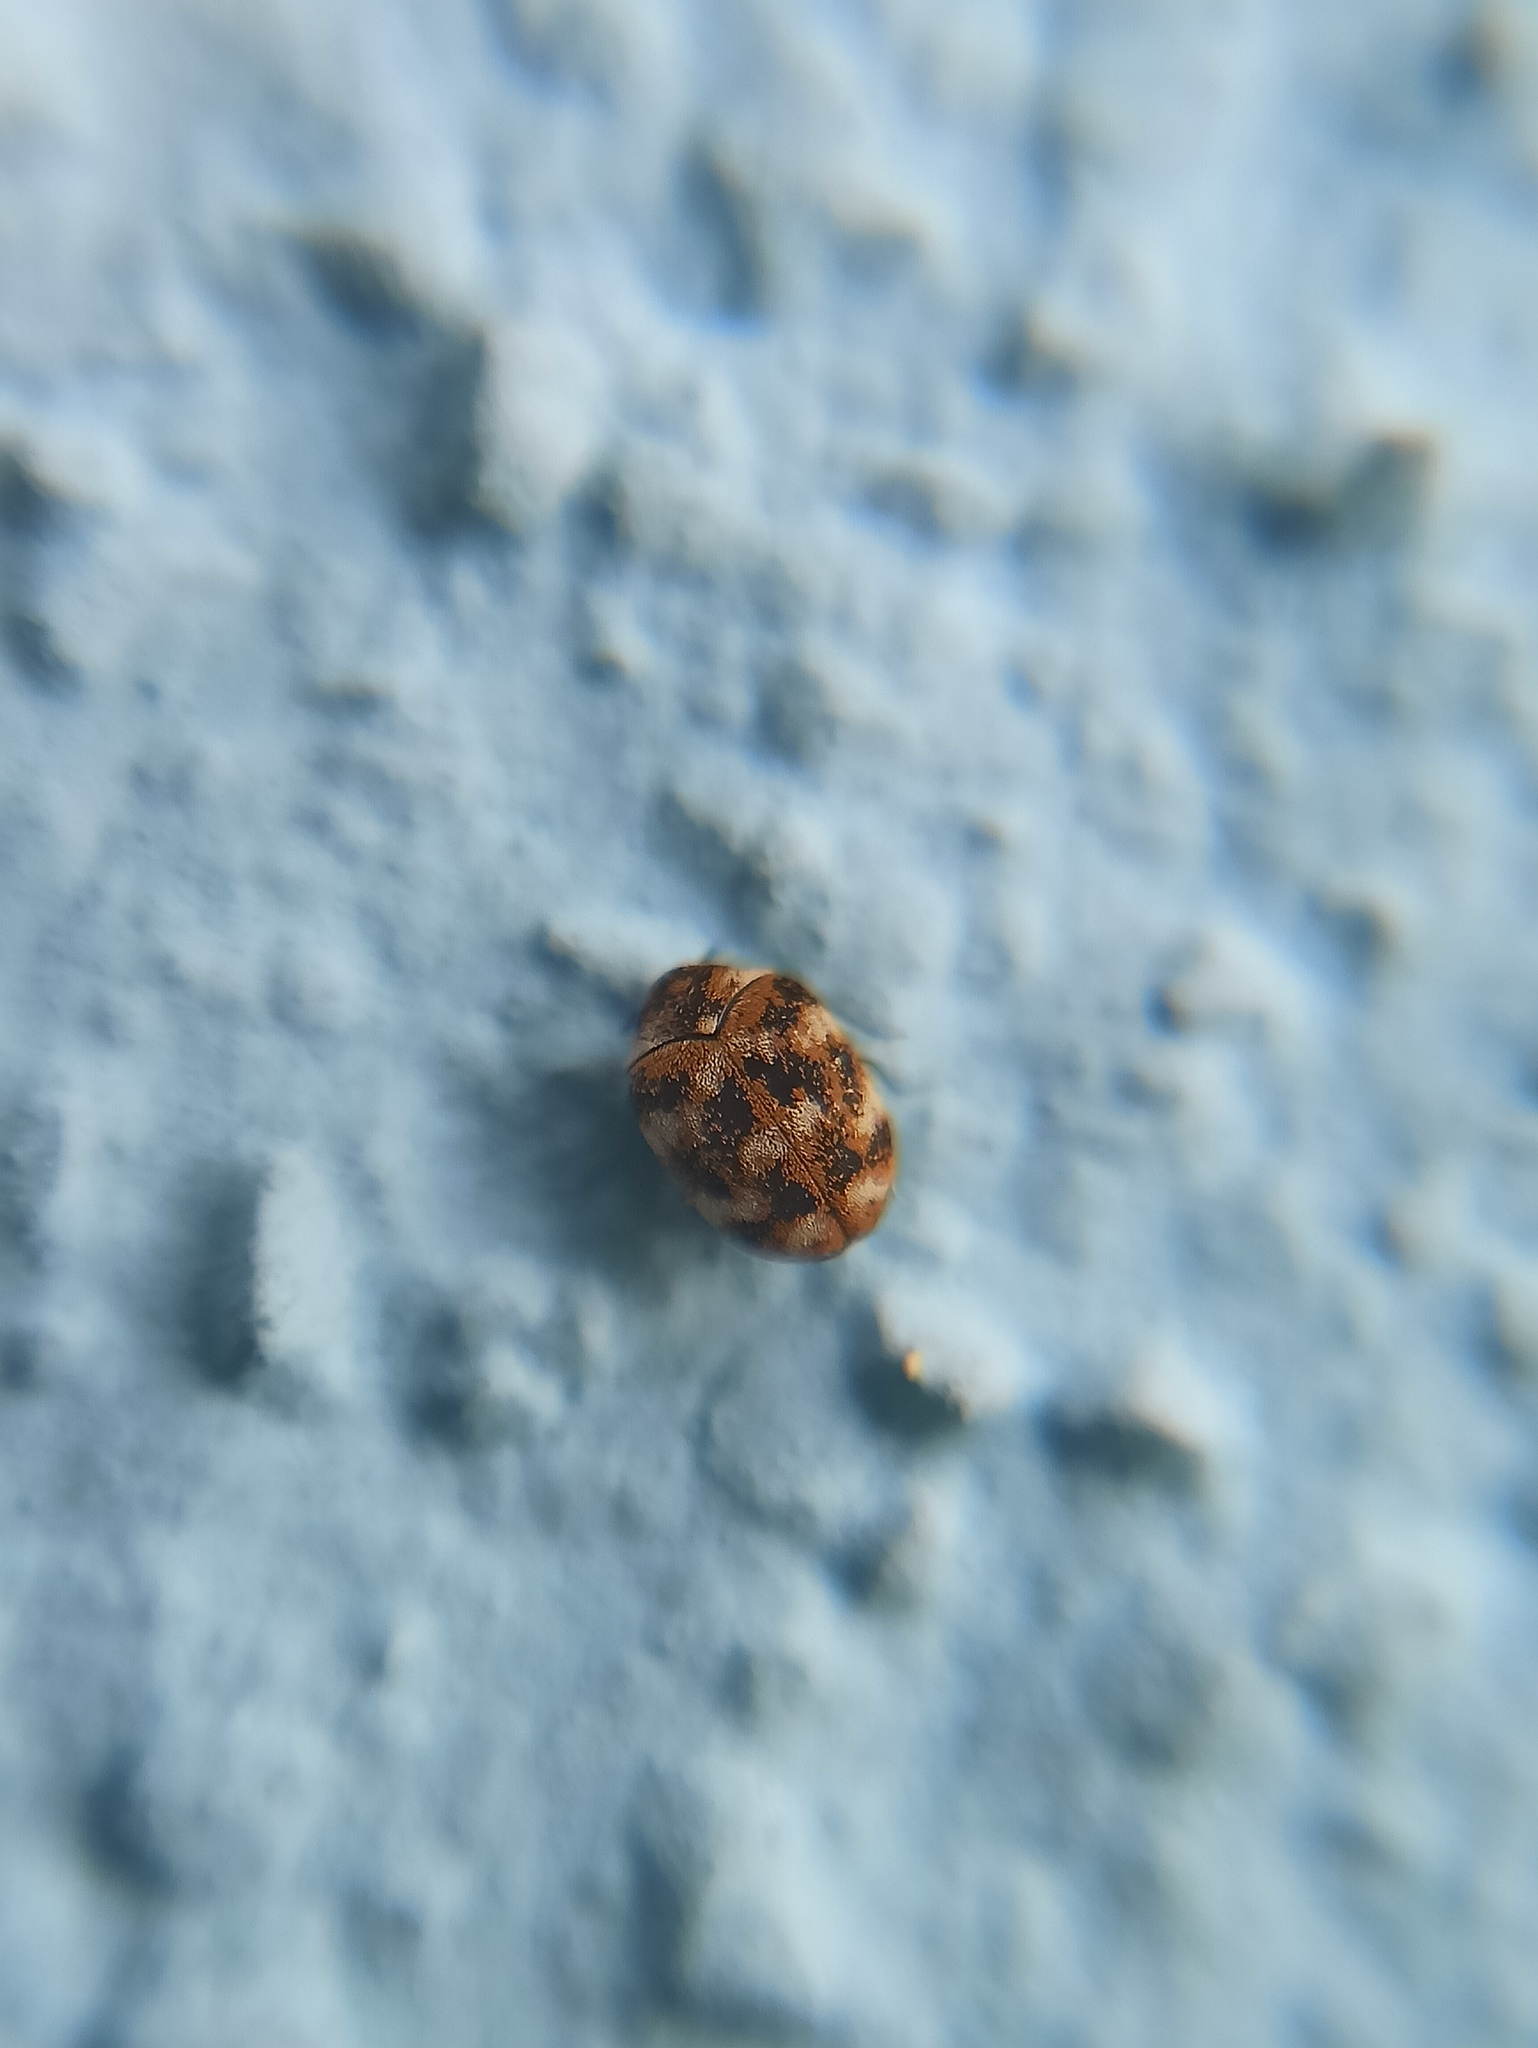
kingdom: Animalia
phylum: Arthropoda
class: Insecta
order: Coleoptera
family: Dermestidae
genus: Anthrenus
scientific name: Anthrenus verbasci
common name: Varied carpet beetle
